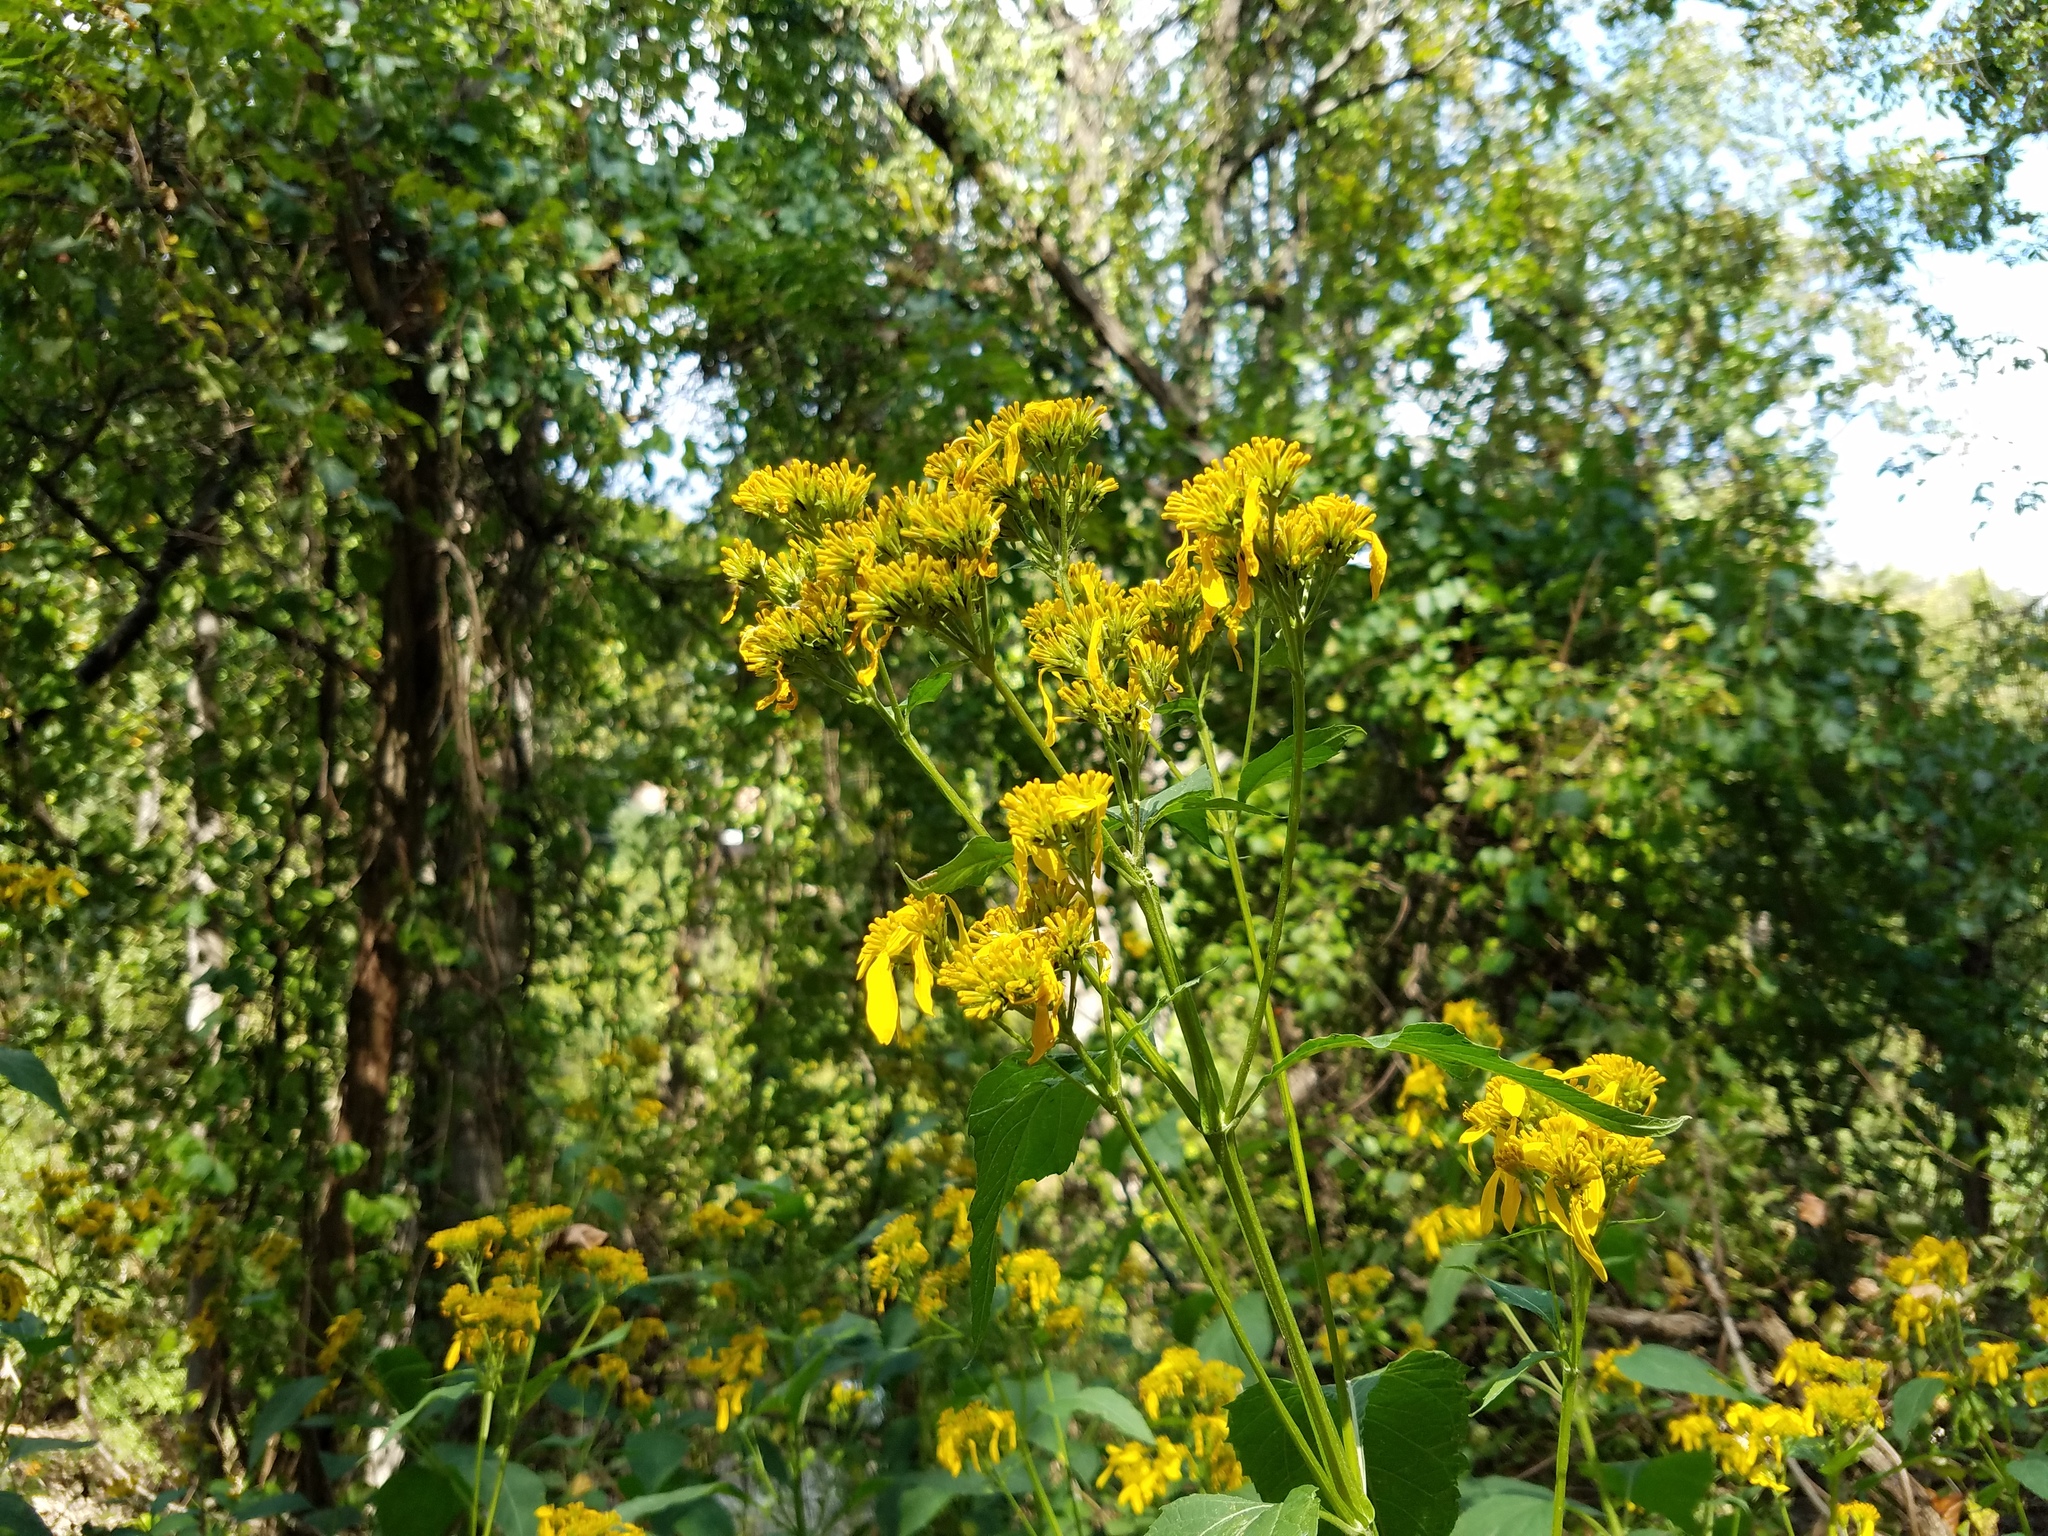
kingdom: Plantae
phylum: Tracheophyta
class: Magnoliopsida
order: Asterales
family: Asteraceae
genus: Verbesina
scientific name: Verbesina occidentalis
